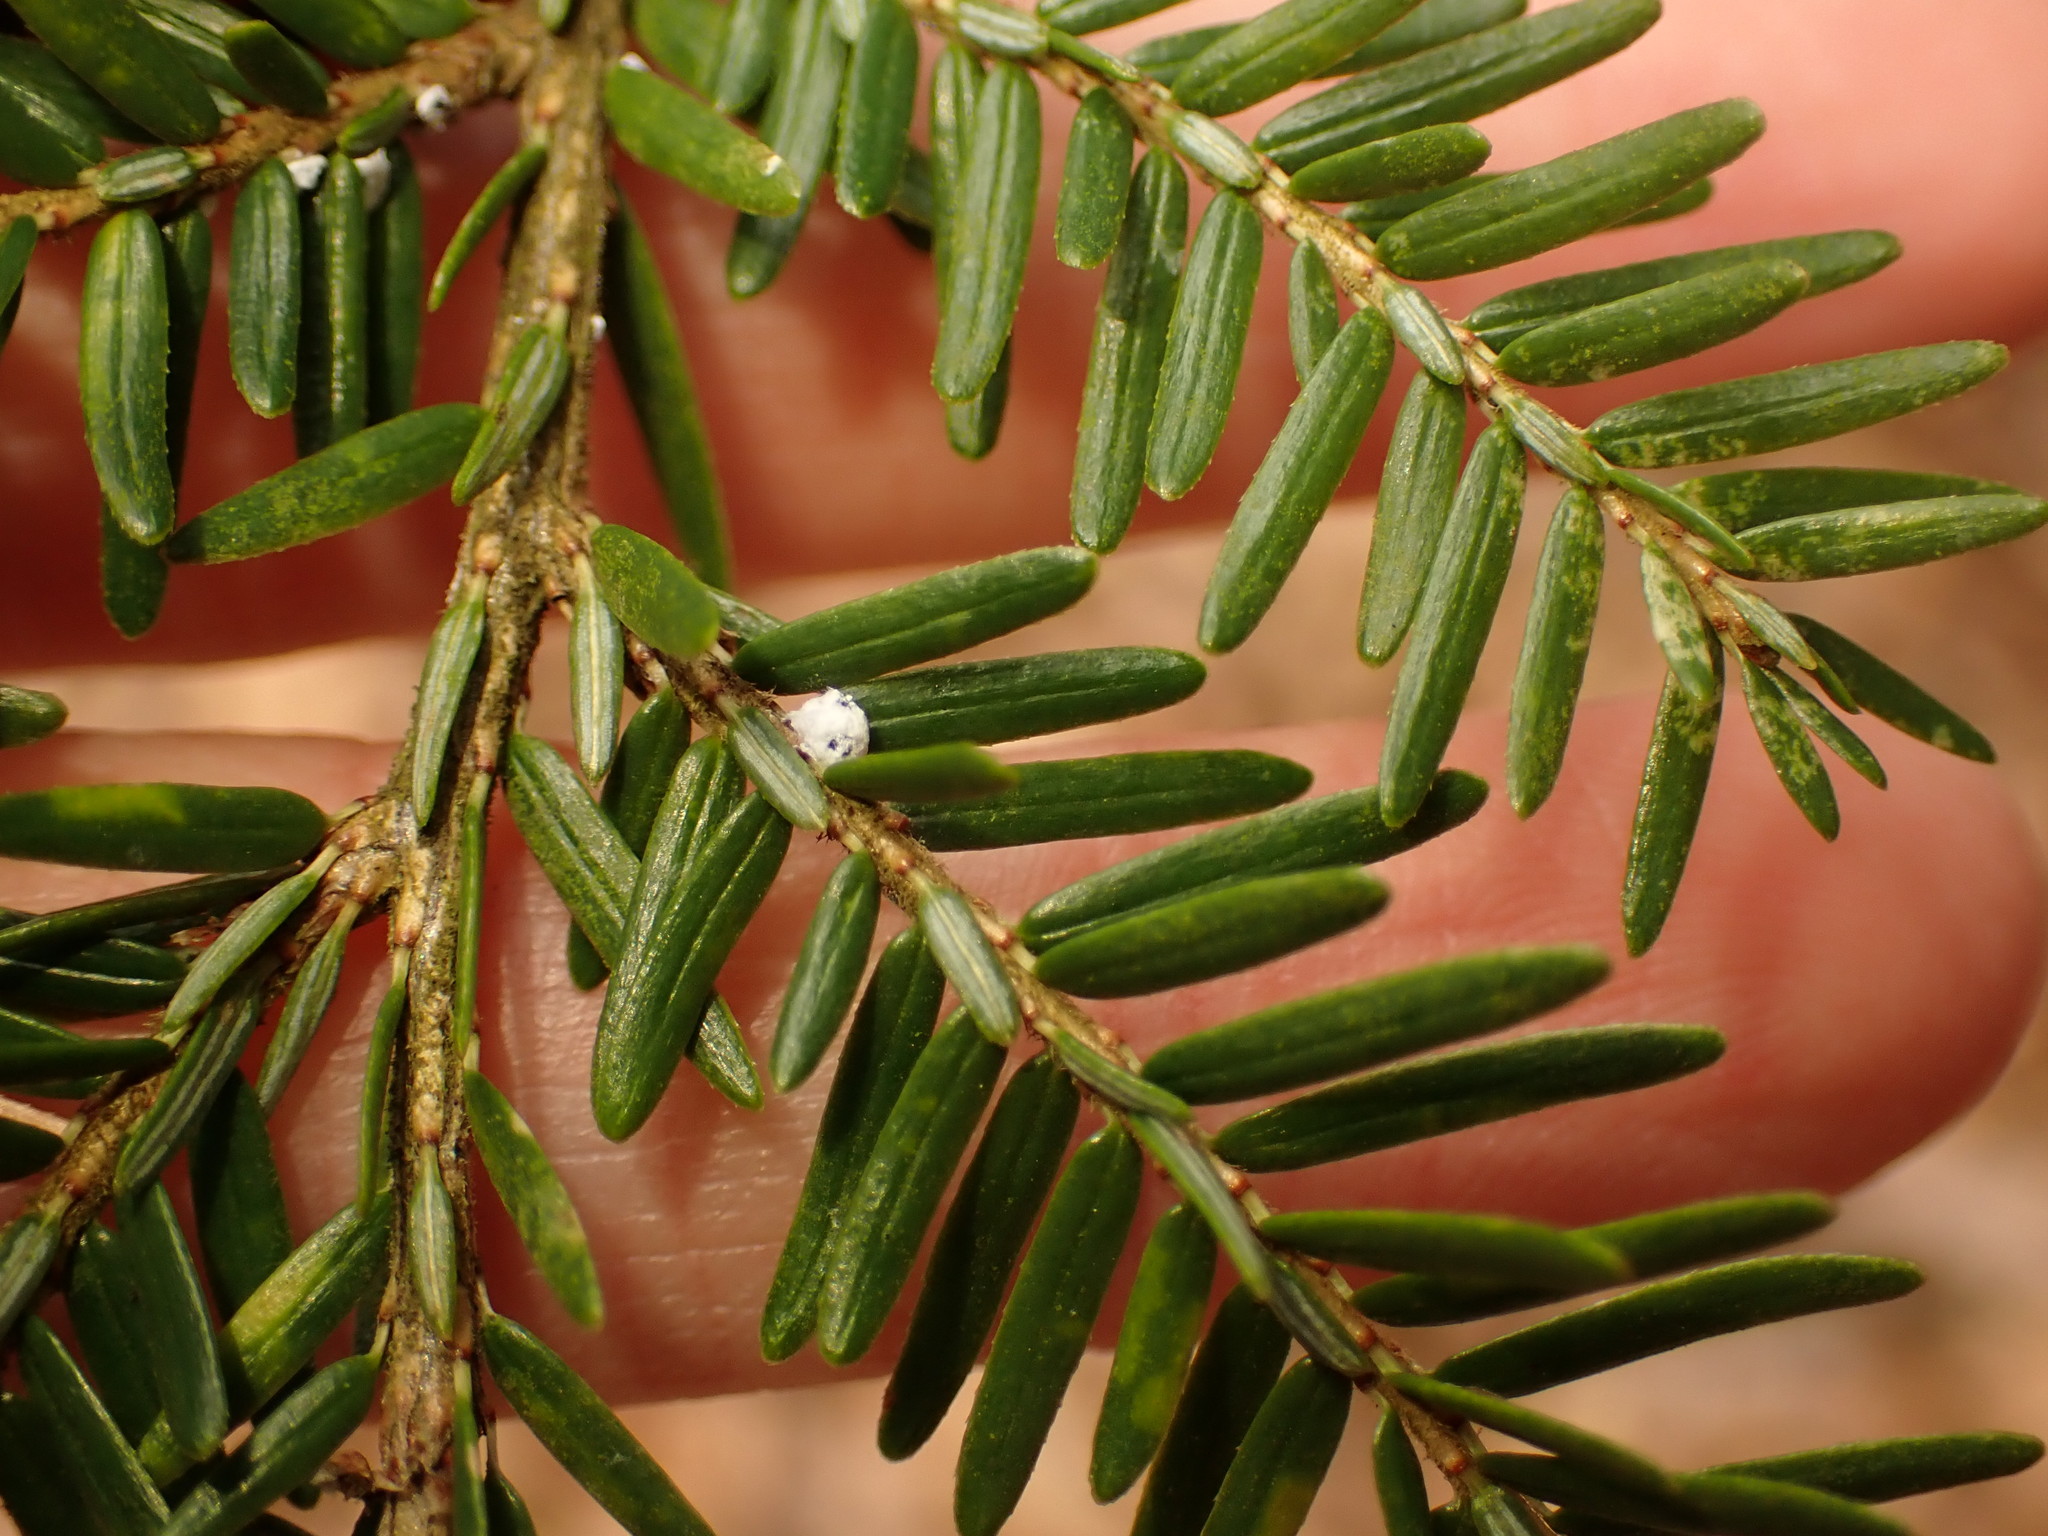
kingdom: Animalia
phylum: Arthropoda
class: Insecta
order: Hemiptera
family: Adelgidae
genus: Adelges
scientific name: Adelges tsugae
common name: Hemlock woolly adelgid
